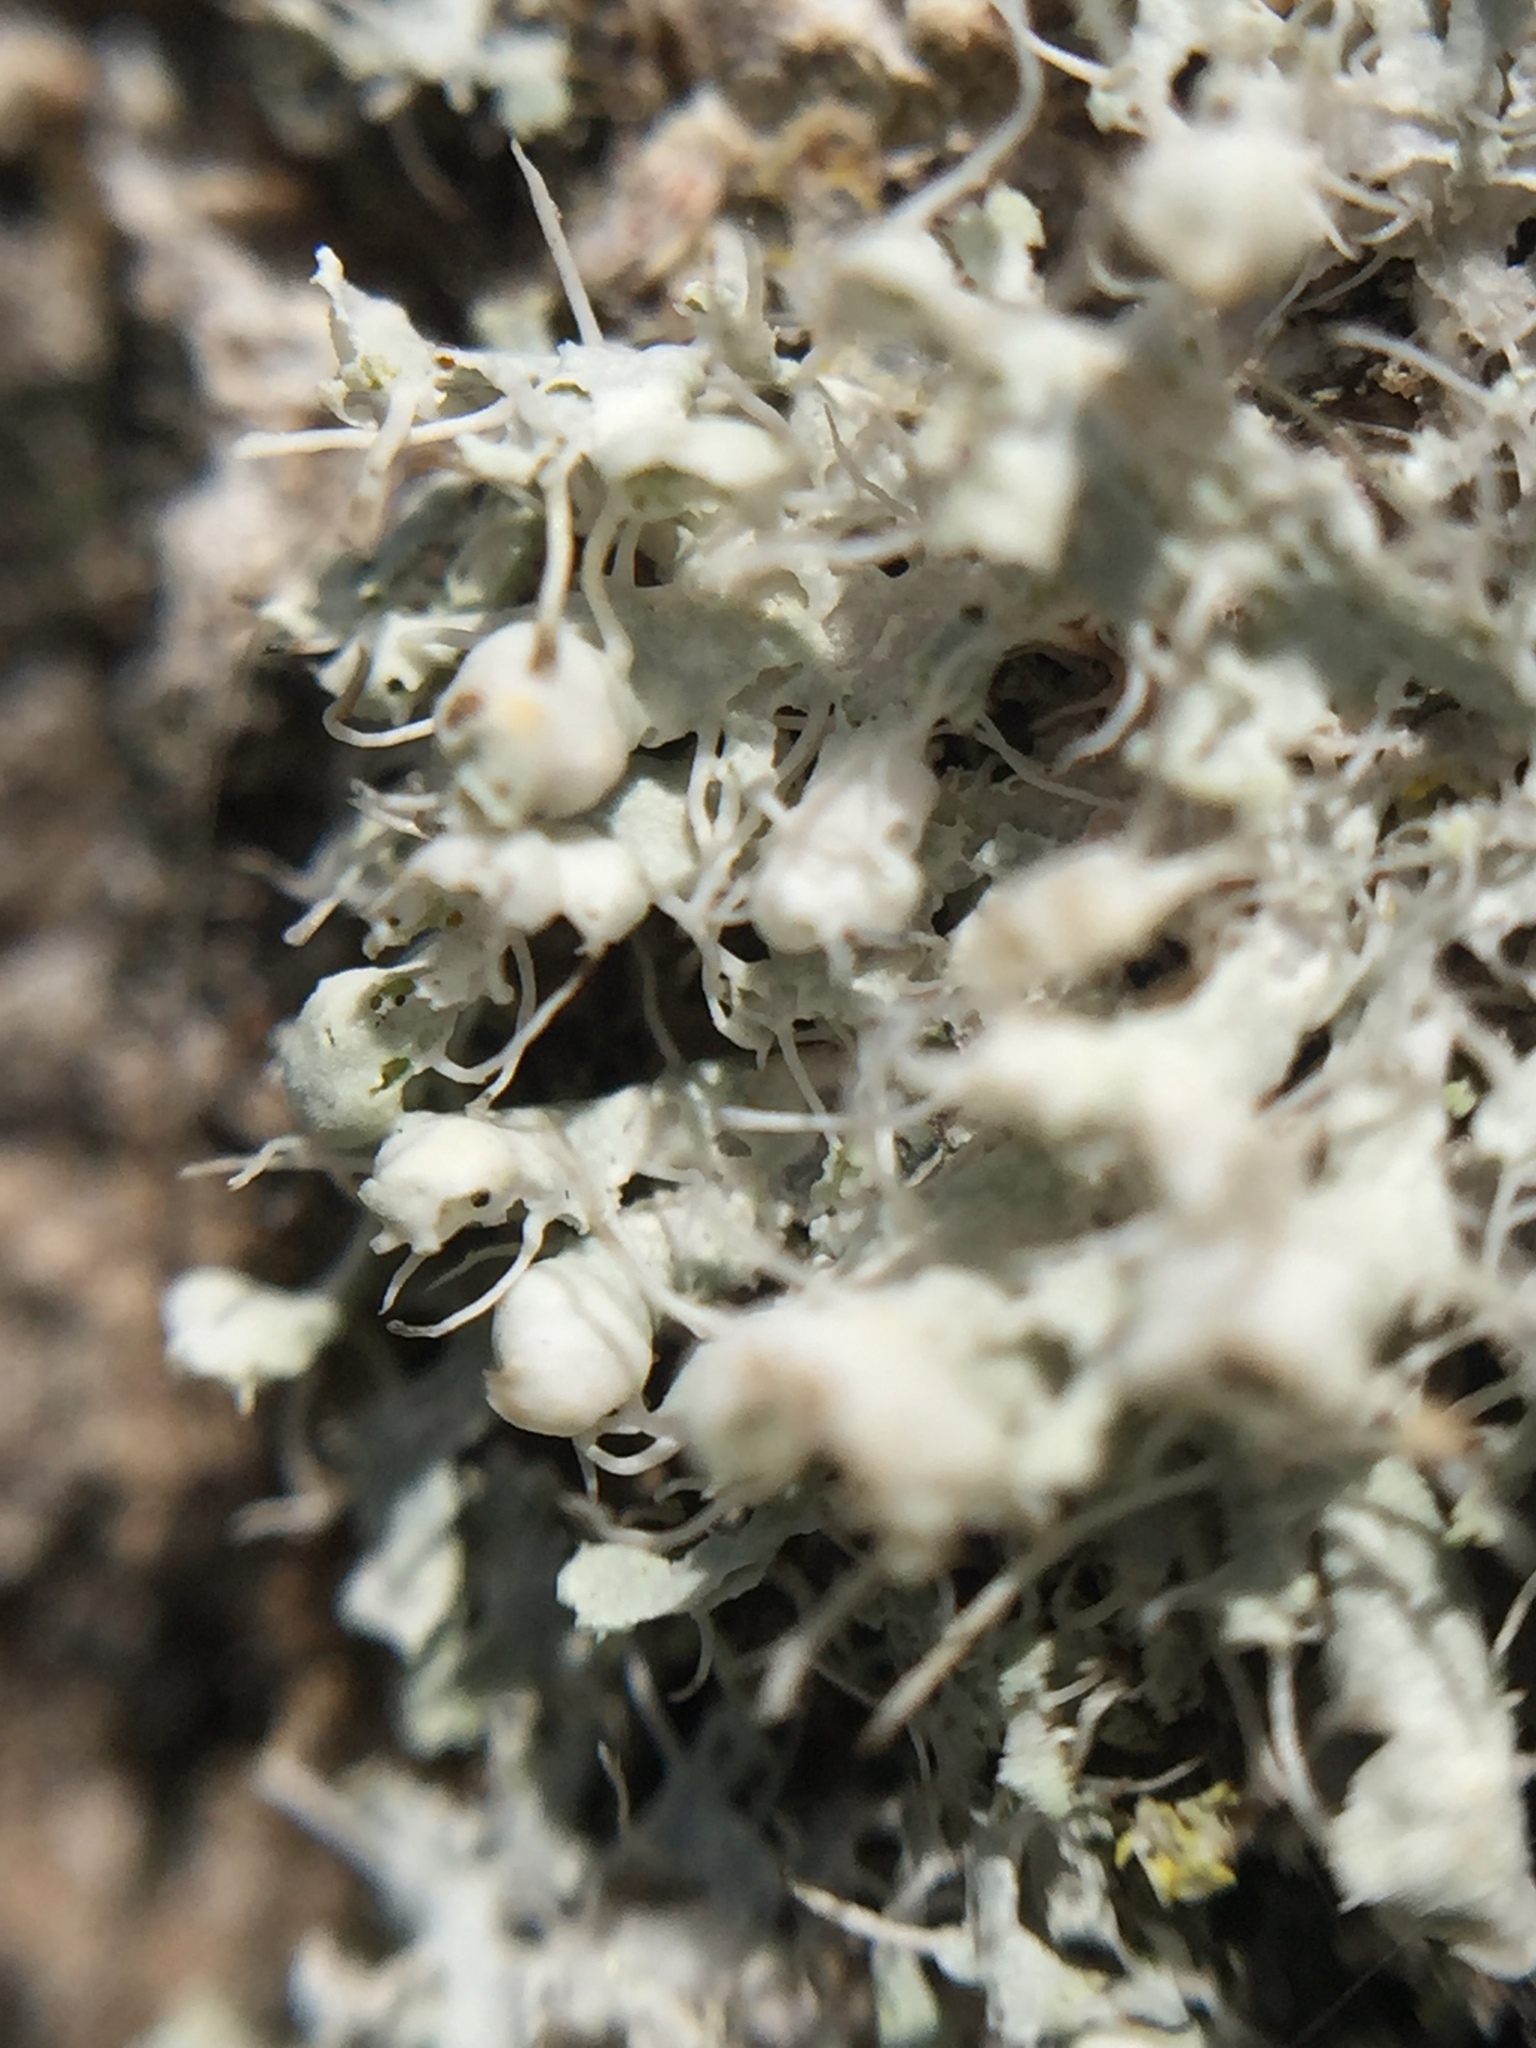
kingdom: Fungi
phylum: Ascomycota
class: Lecanoromycetes
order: Caliciales
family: Physciaceae
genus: Physcia
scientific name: Physcia adscendens
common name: Hooded rosette lichen
